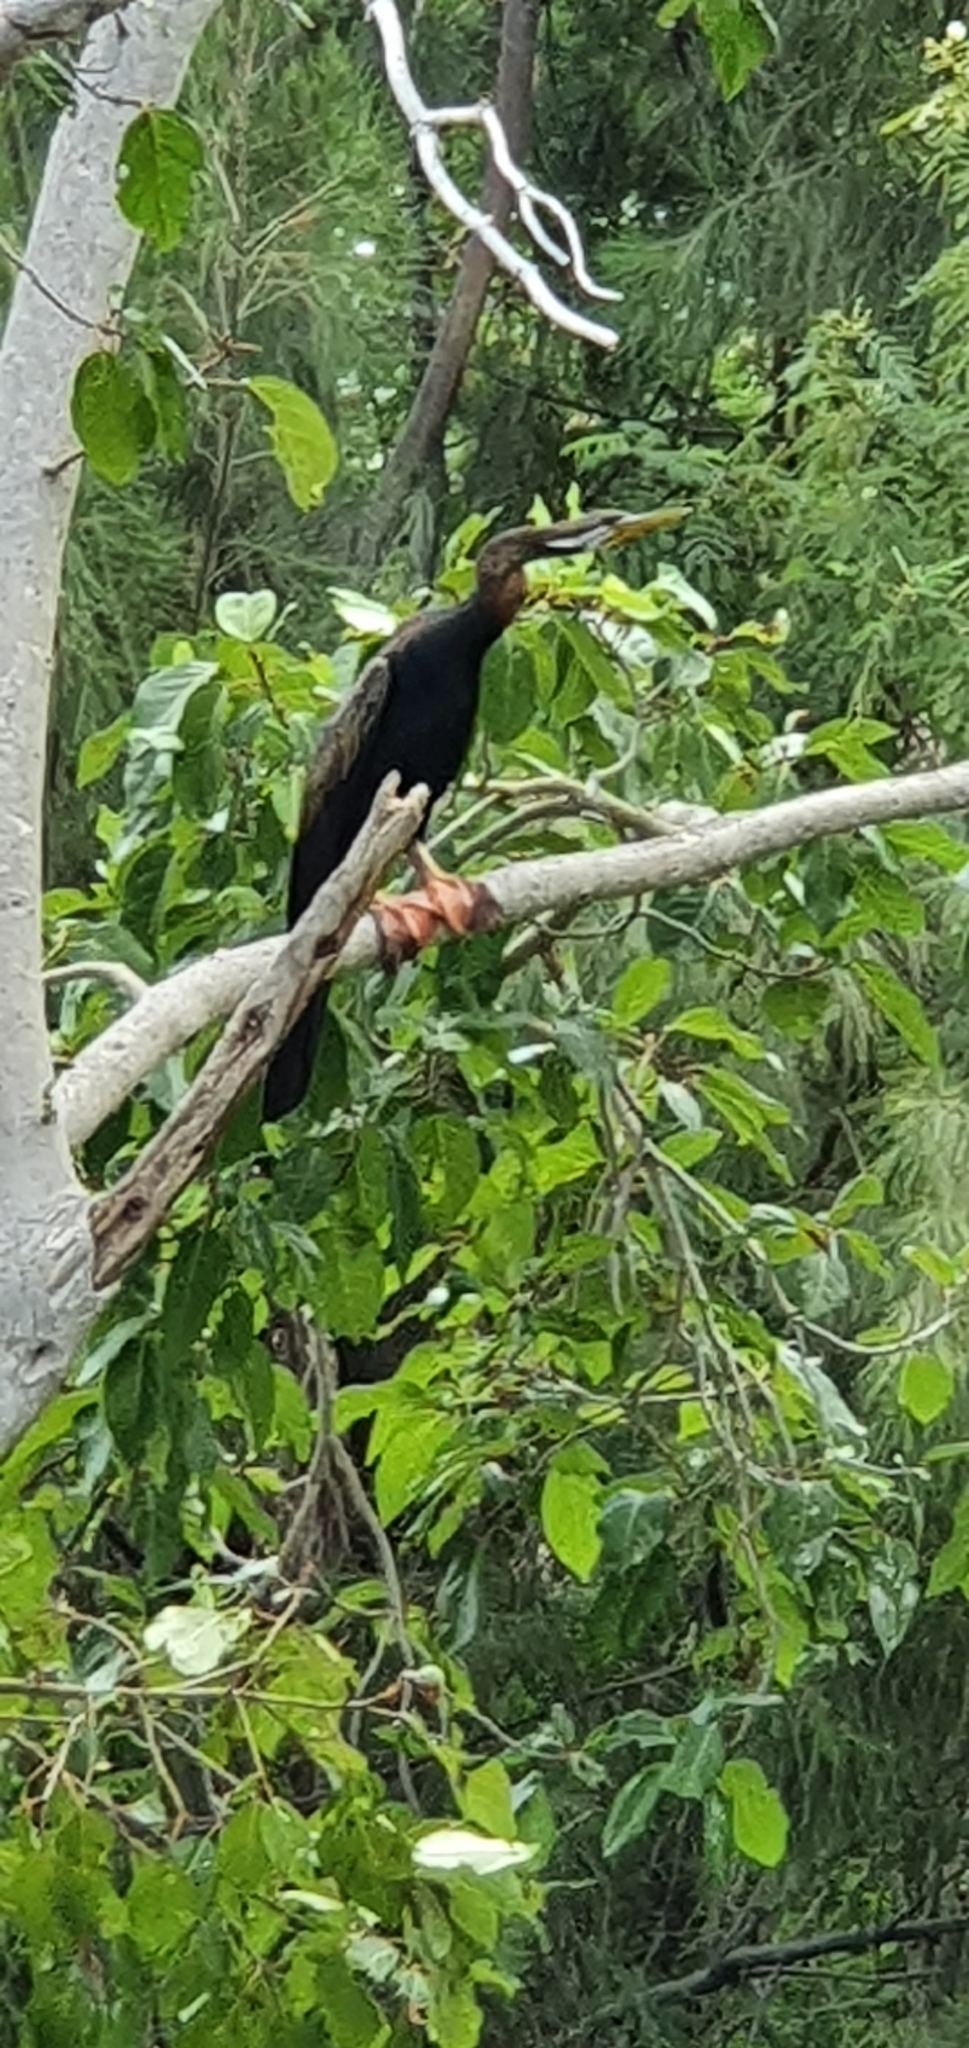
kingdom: Animalia
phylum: Chordata
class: Aves
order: Suliformes
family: Anhingidae
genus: Anhinga
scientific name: Anhinga novaehollandiae
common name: Australasian darter
